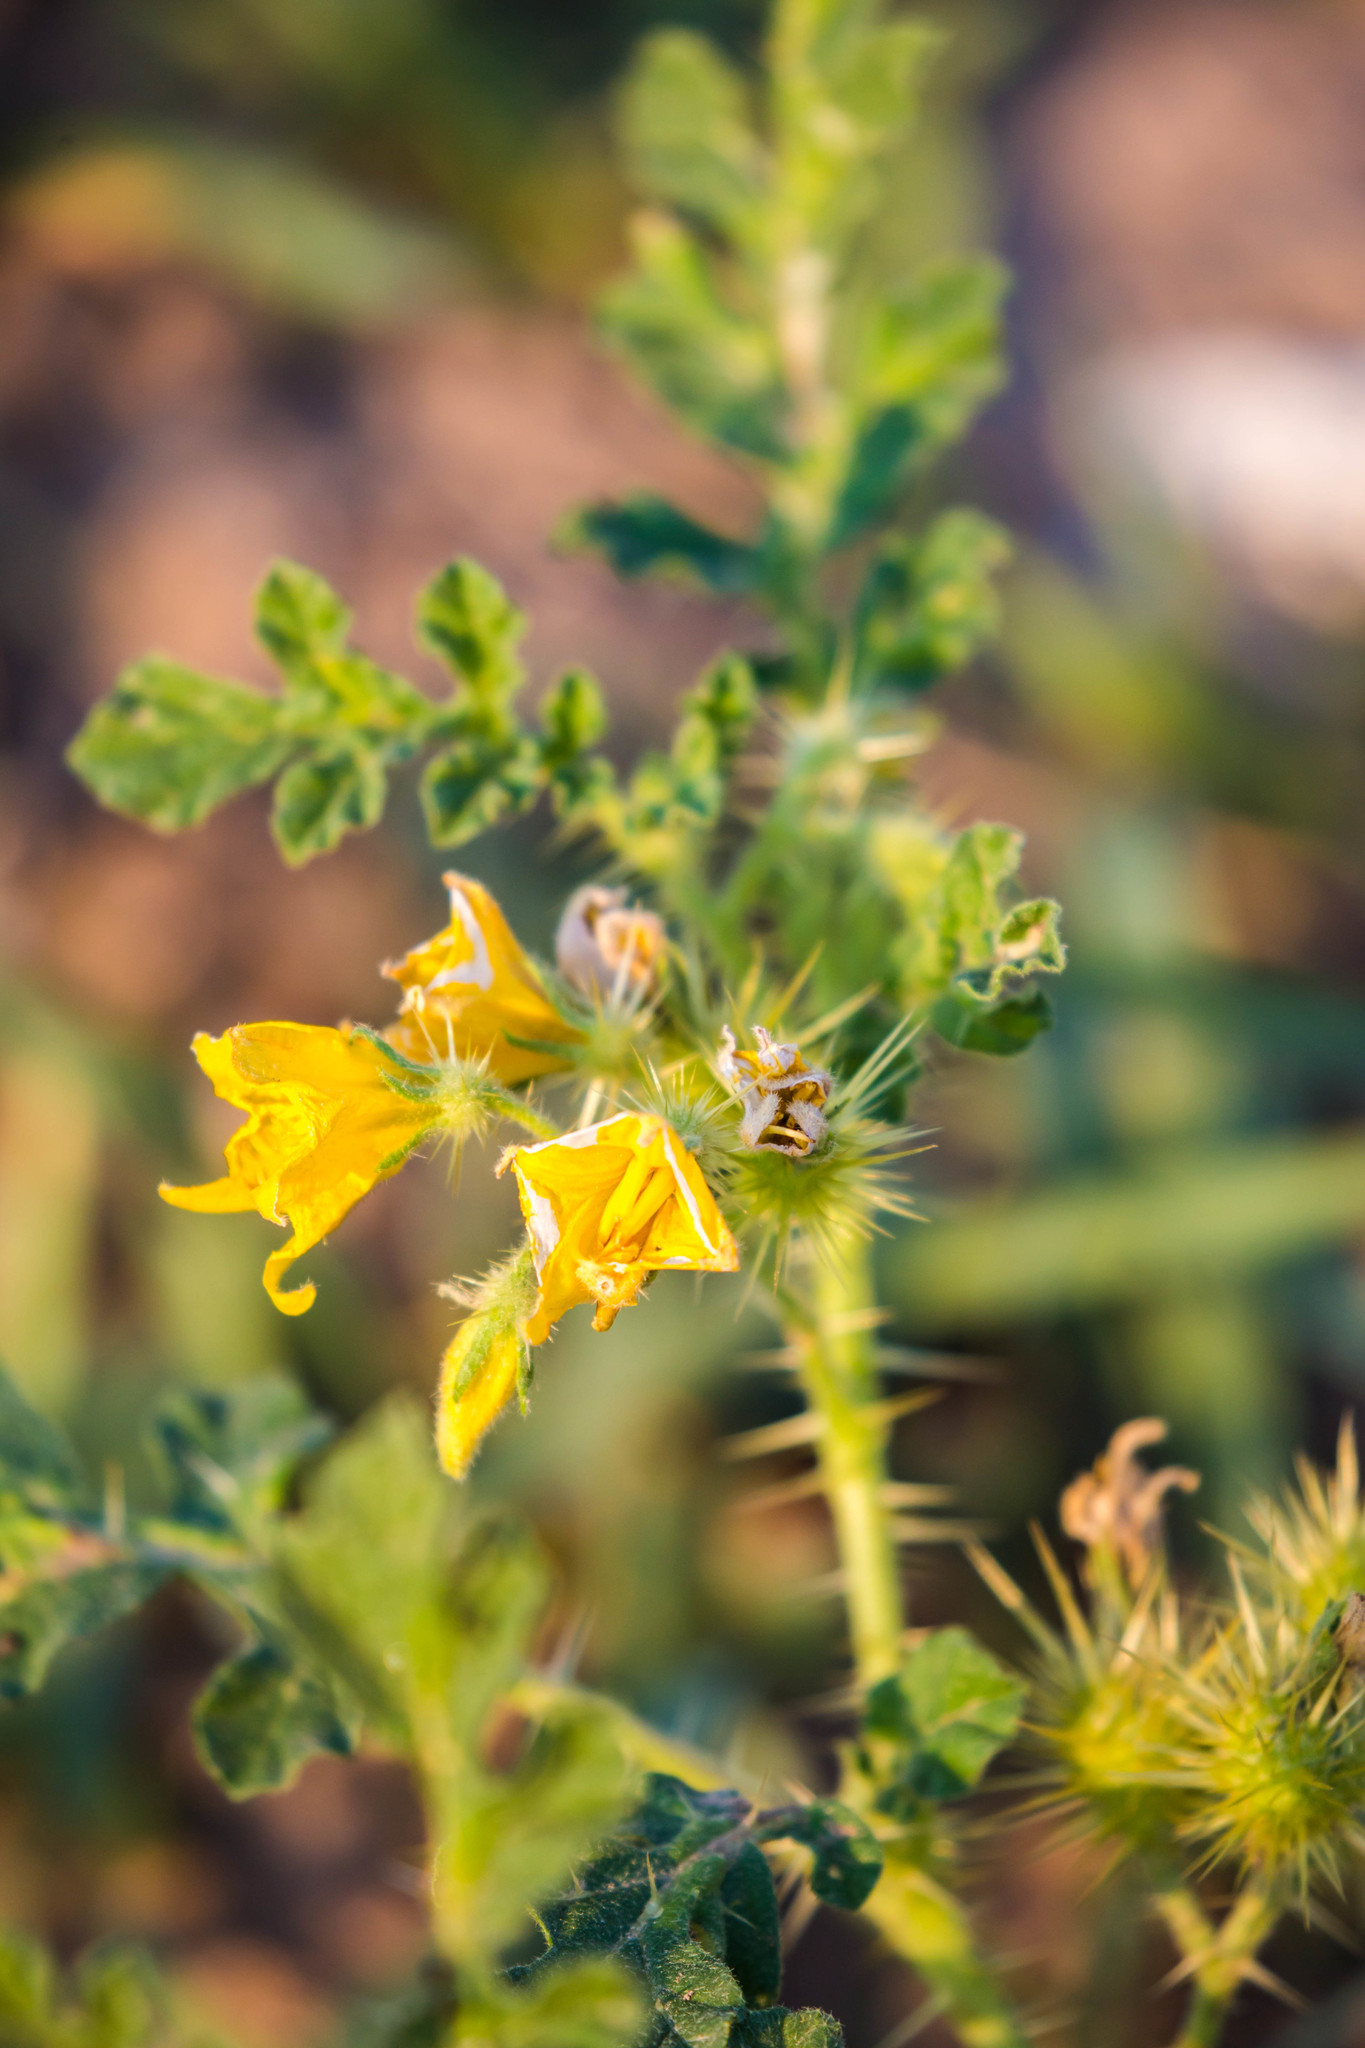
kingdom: Plantae
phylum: Tracheophyta
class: Magnoliopsida
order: Solanales
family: Solanaceae
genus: Solanum
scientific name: Solanum angustifolium
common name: Buffalobur nightshade
